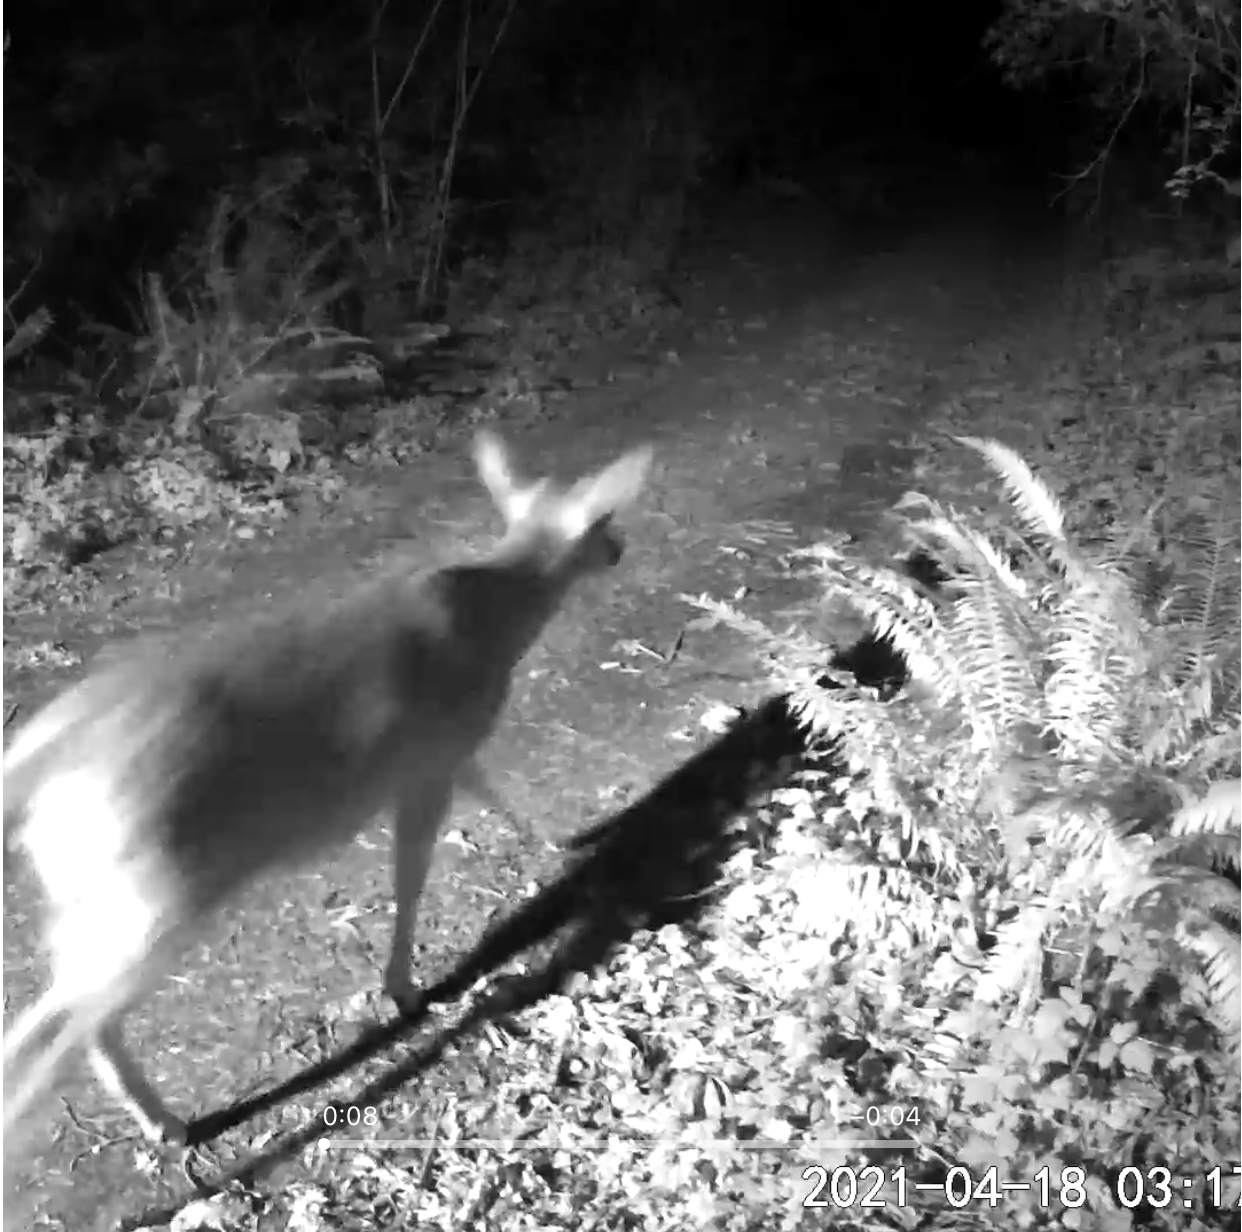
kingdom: Animalia
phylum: Chordata
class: Mammalia
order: Artiodactyla
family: Cervidae
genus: Odocoileus
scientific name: Odocoileus hemionus
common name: Mule deer
